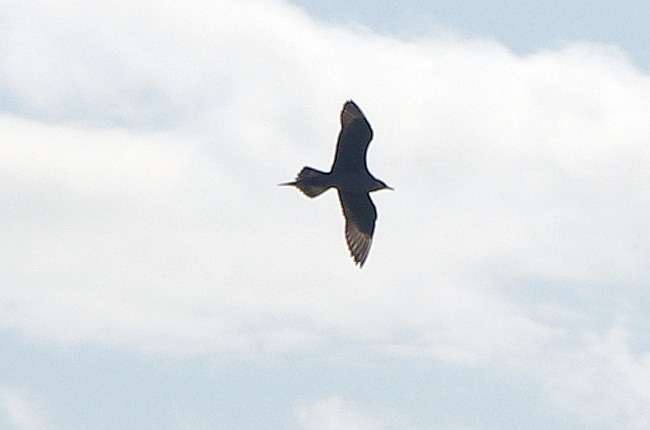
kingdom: Animalia
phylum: Chordata
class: Aves
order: Charadriiformes
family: Stercorariidae
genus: Stercorarius
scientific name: Stercorarius parasiticus
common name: Parasitic jaeger
